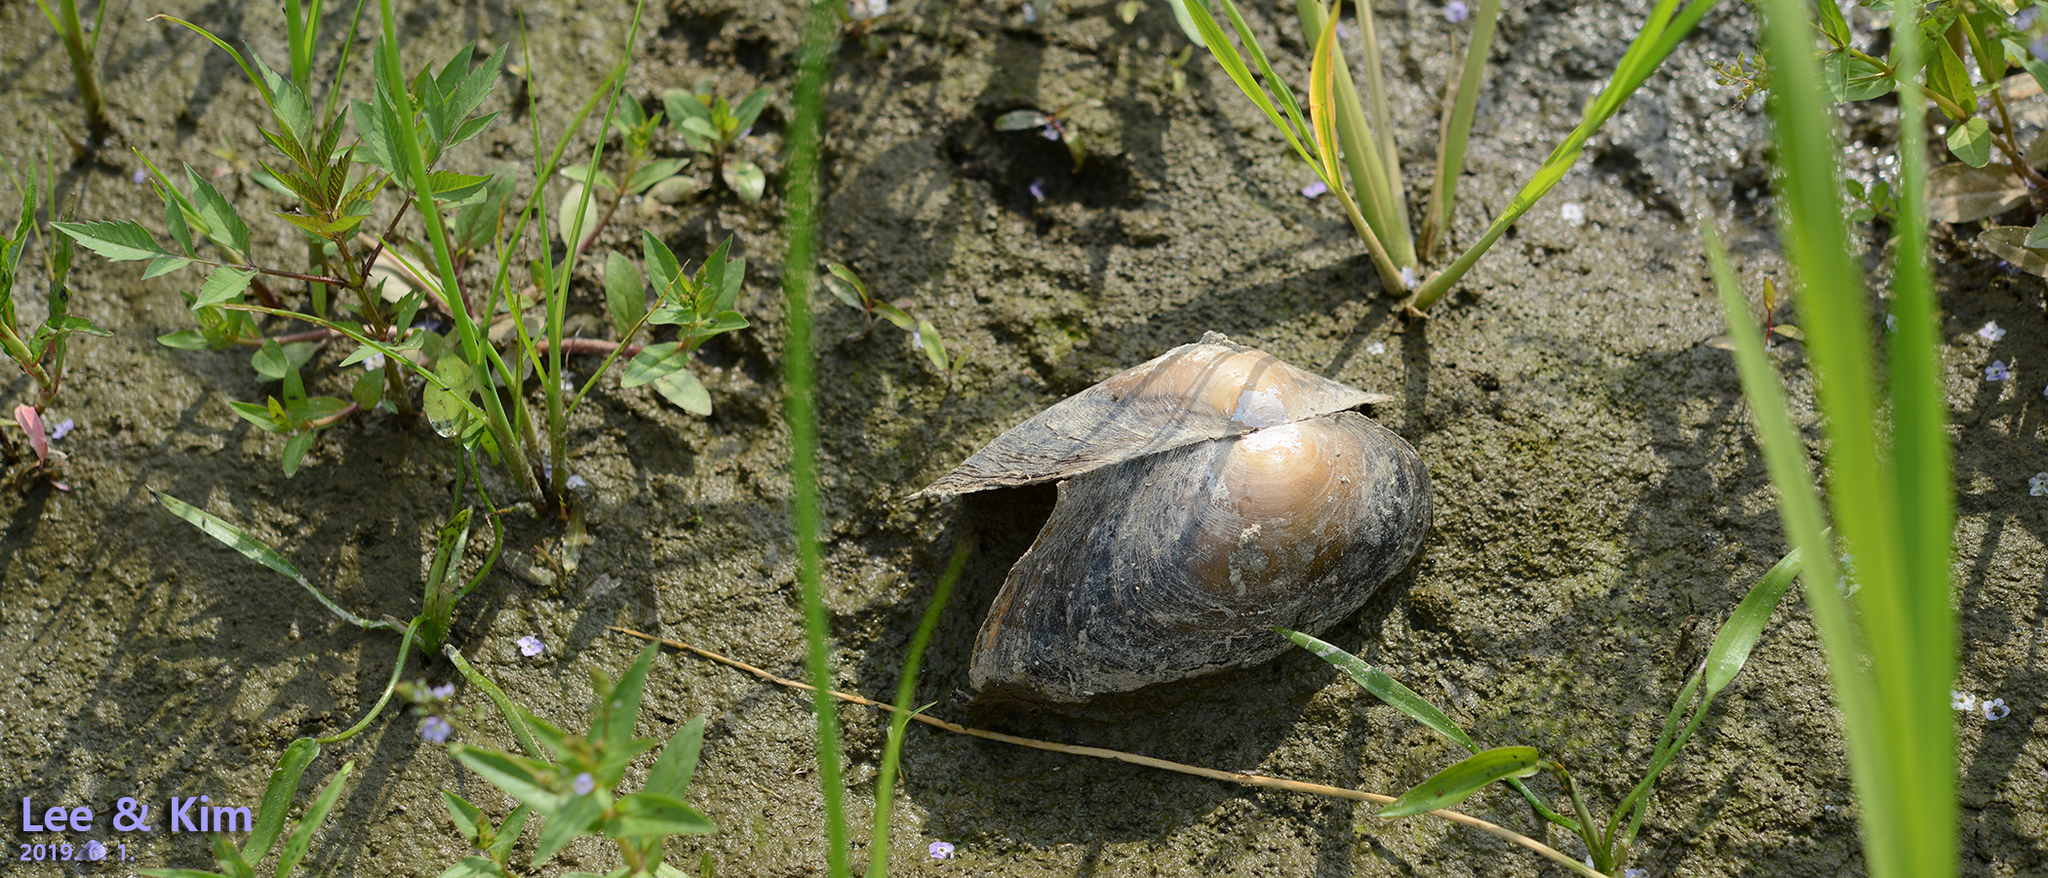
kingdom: Animalia
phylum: Mollusca
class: Bivalvia
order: Unionida
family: Unionidae
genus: Sinanodonta
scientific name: Sinanodonta lauta
